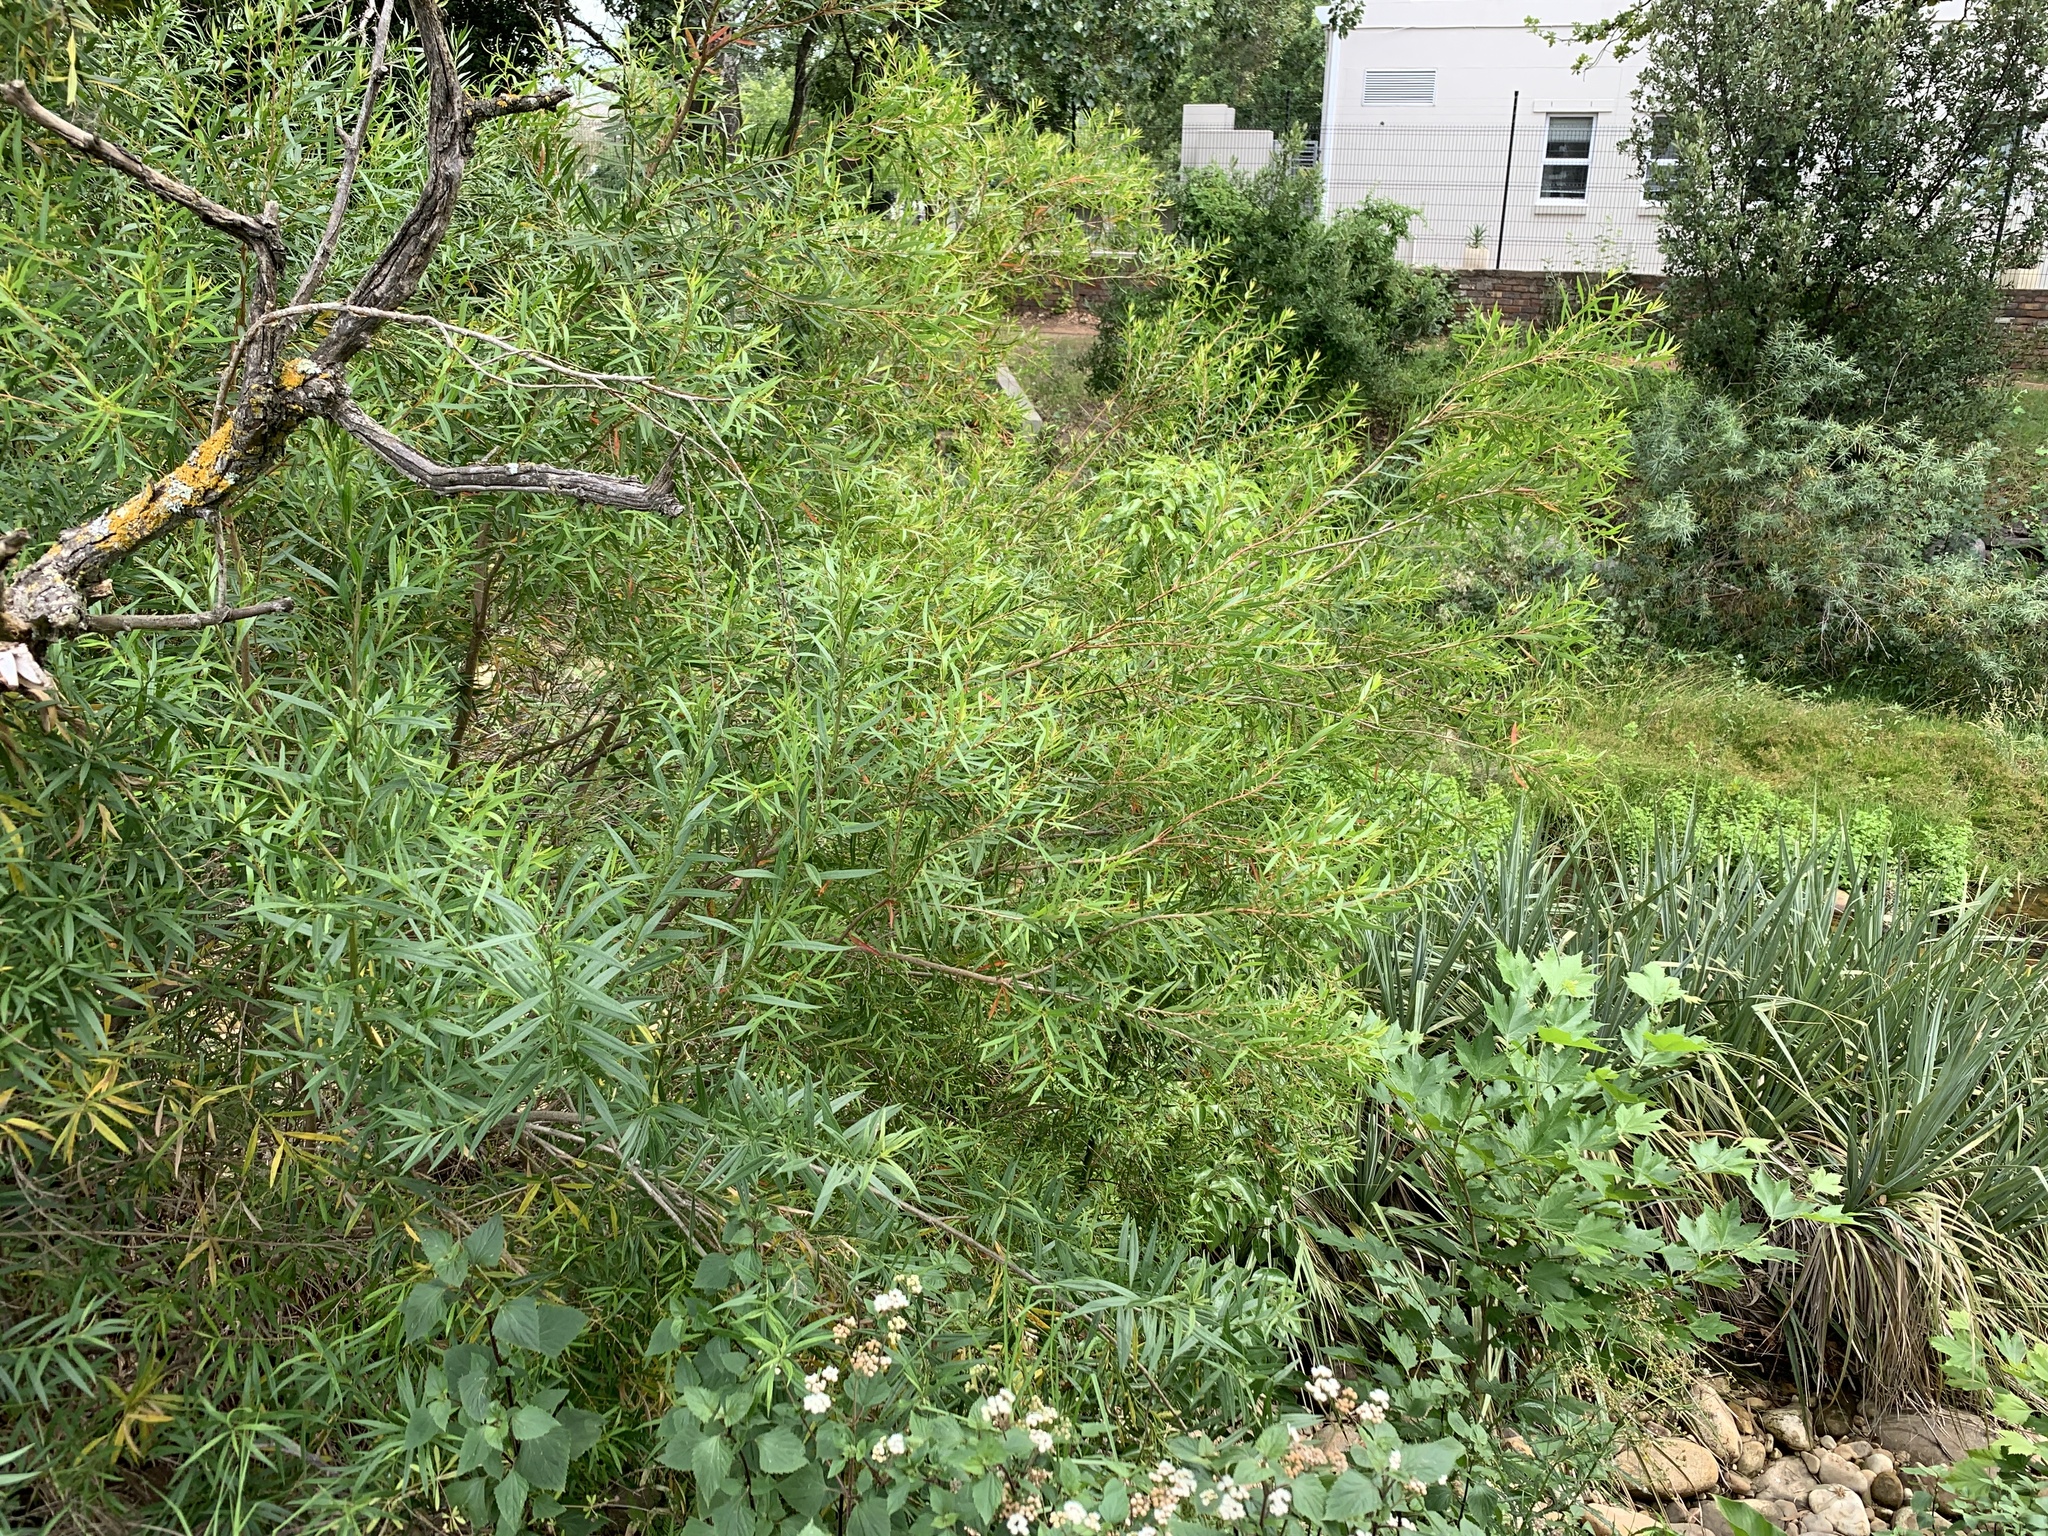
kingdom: Plantae
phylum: Tracheophyta
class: Magnoliopsida
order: Myrtales
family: Myrtaceae
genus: Callistemon
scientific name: Callistemon lanceolatus
